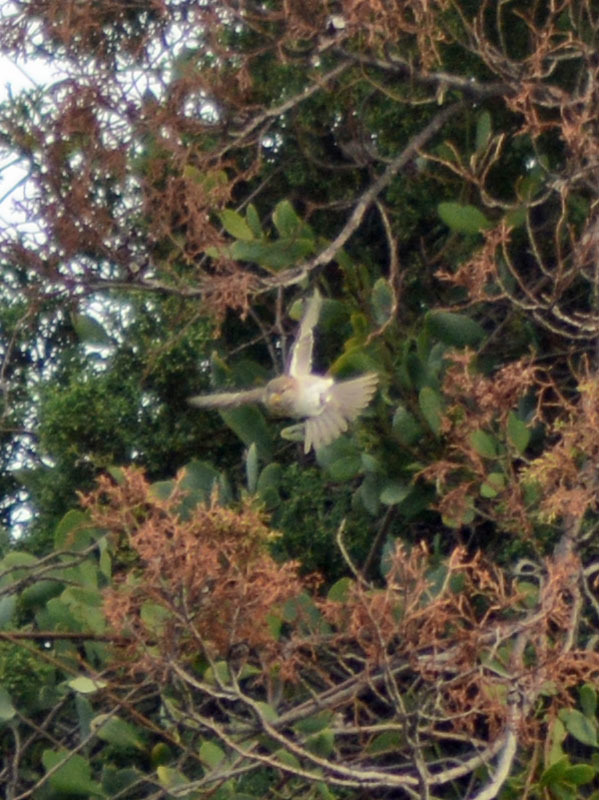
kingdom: Animalia
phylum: Chordata
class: Aves
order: Passeriformes
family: Passeridae
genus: Passer
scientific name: Passer domesticus
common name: House sparrow
